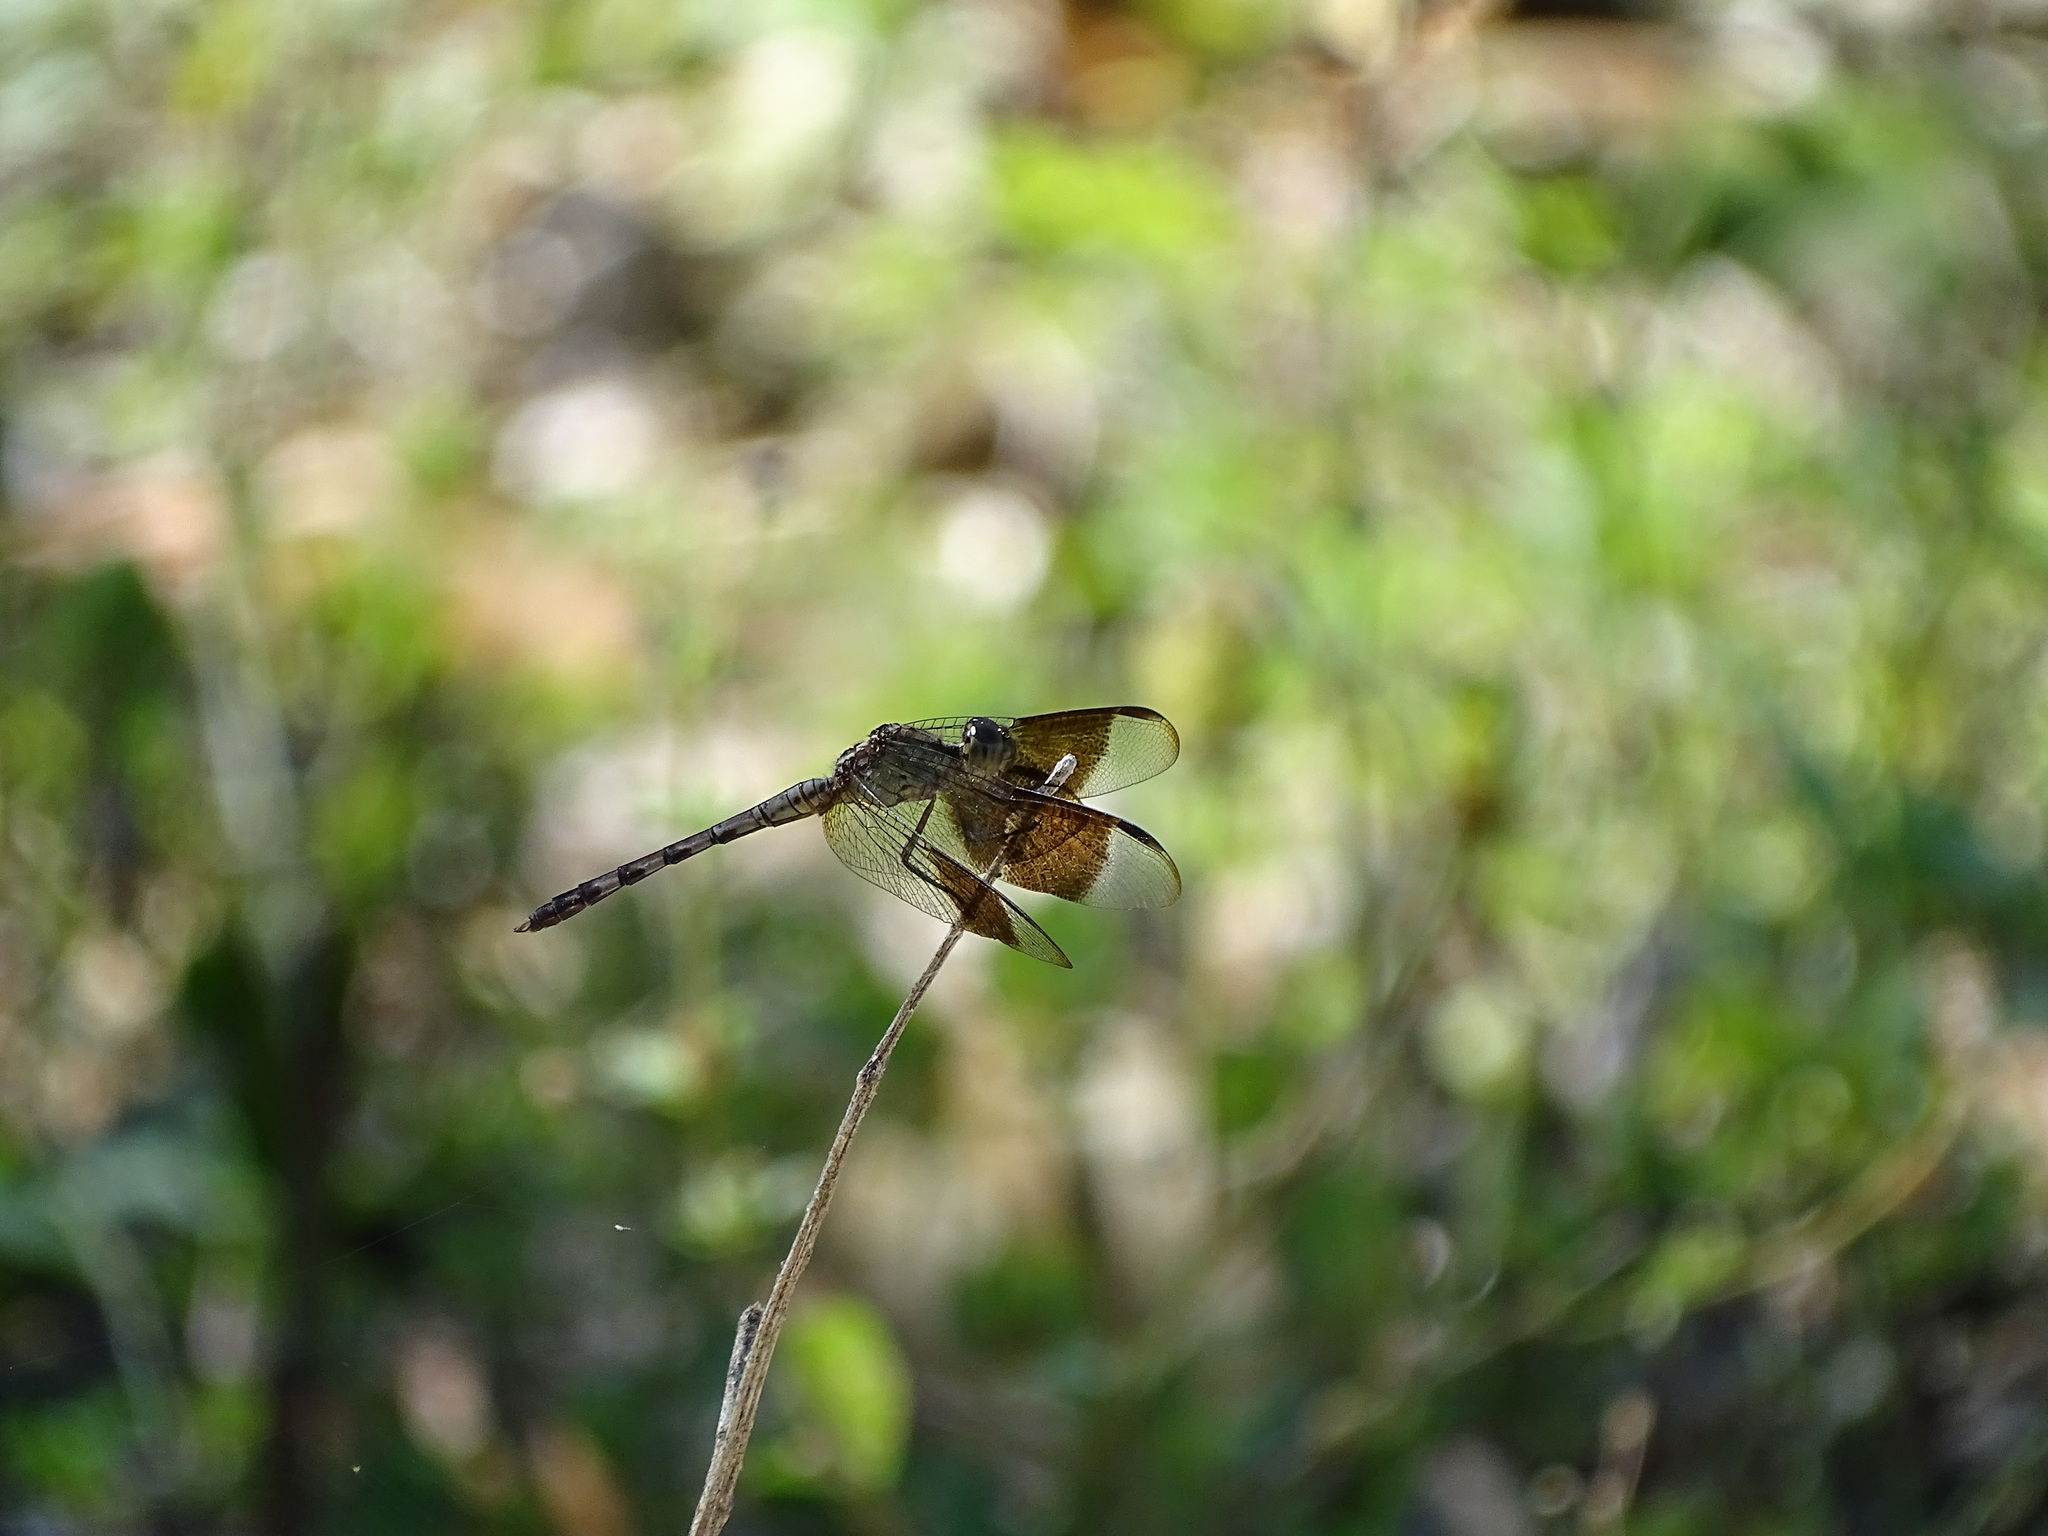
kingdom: Animalia
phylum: Arthropoda
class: Insecta
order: Odonata
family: Libellulidae
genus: Erythrodiplax
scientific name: Erythrodiplax umbrata
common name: Band-winged dragonlet
